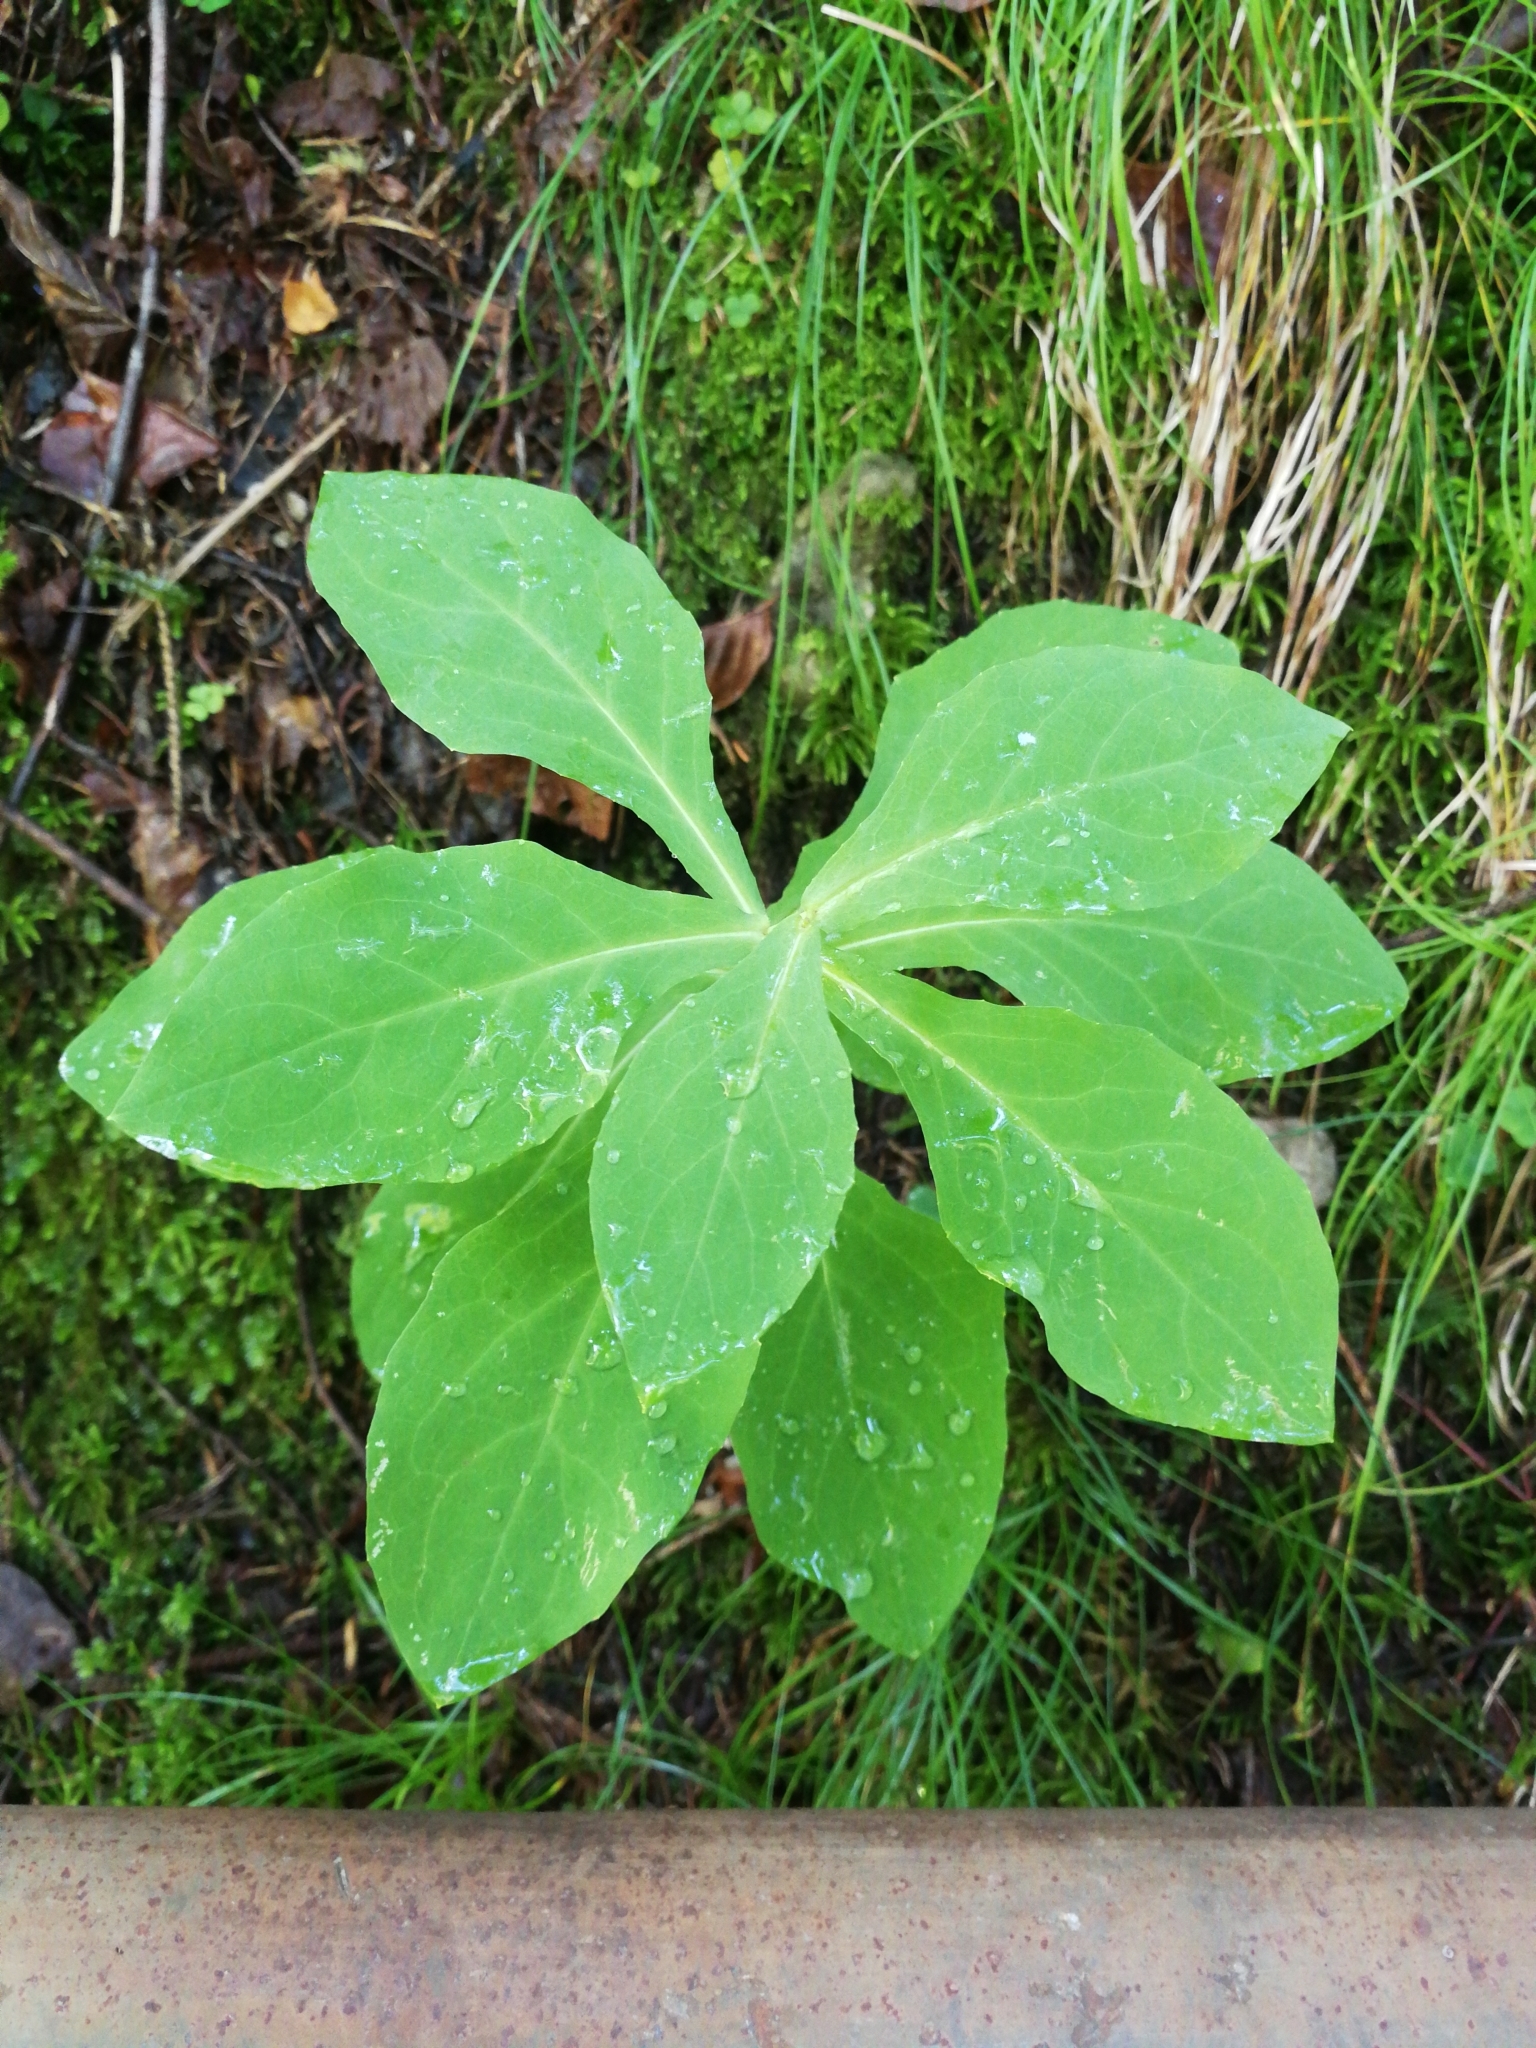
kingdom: Plantae
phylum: Tracheophyta
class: Magnoliopsida
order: Asterales
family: Asteraceae
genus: Prenanthes
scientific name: Prenanthes purpurea
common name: Purple lettuce
